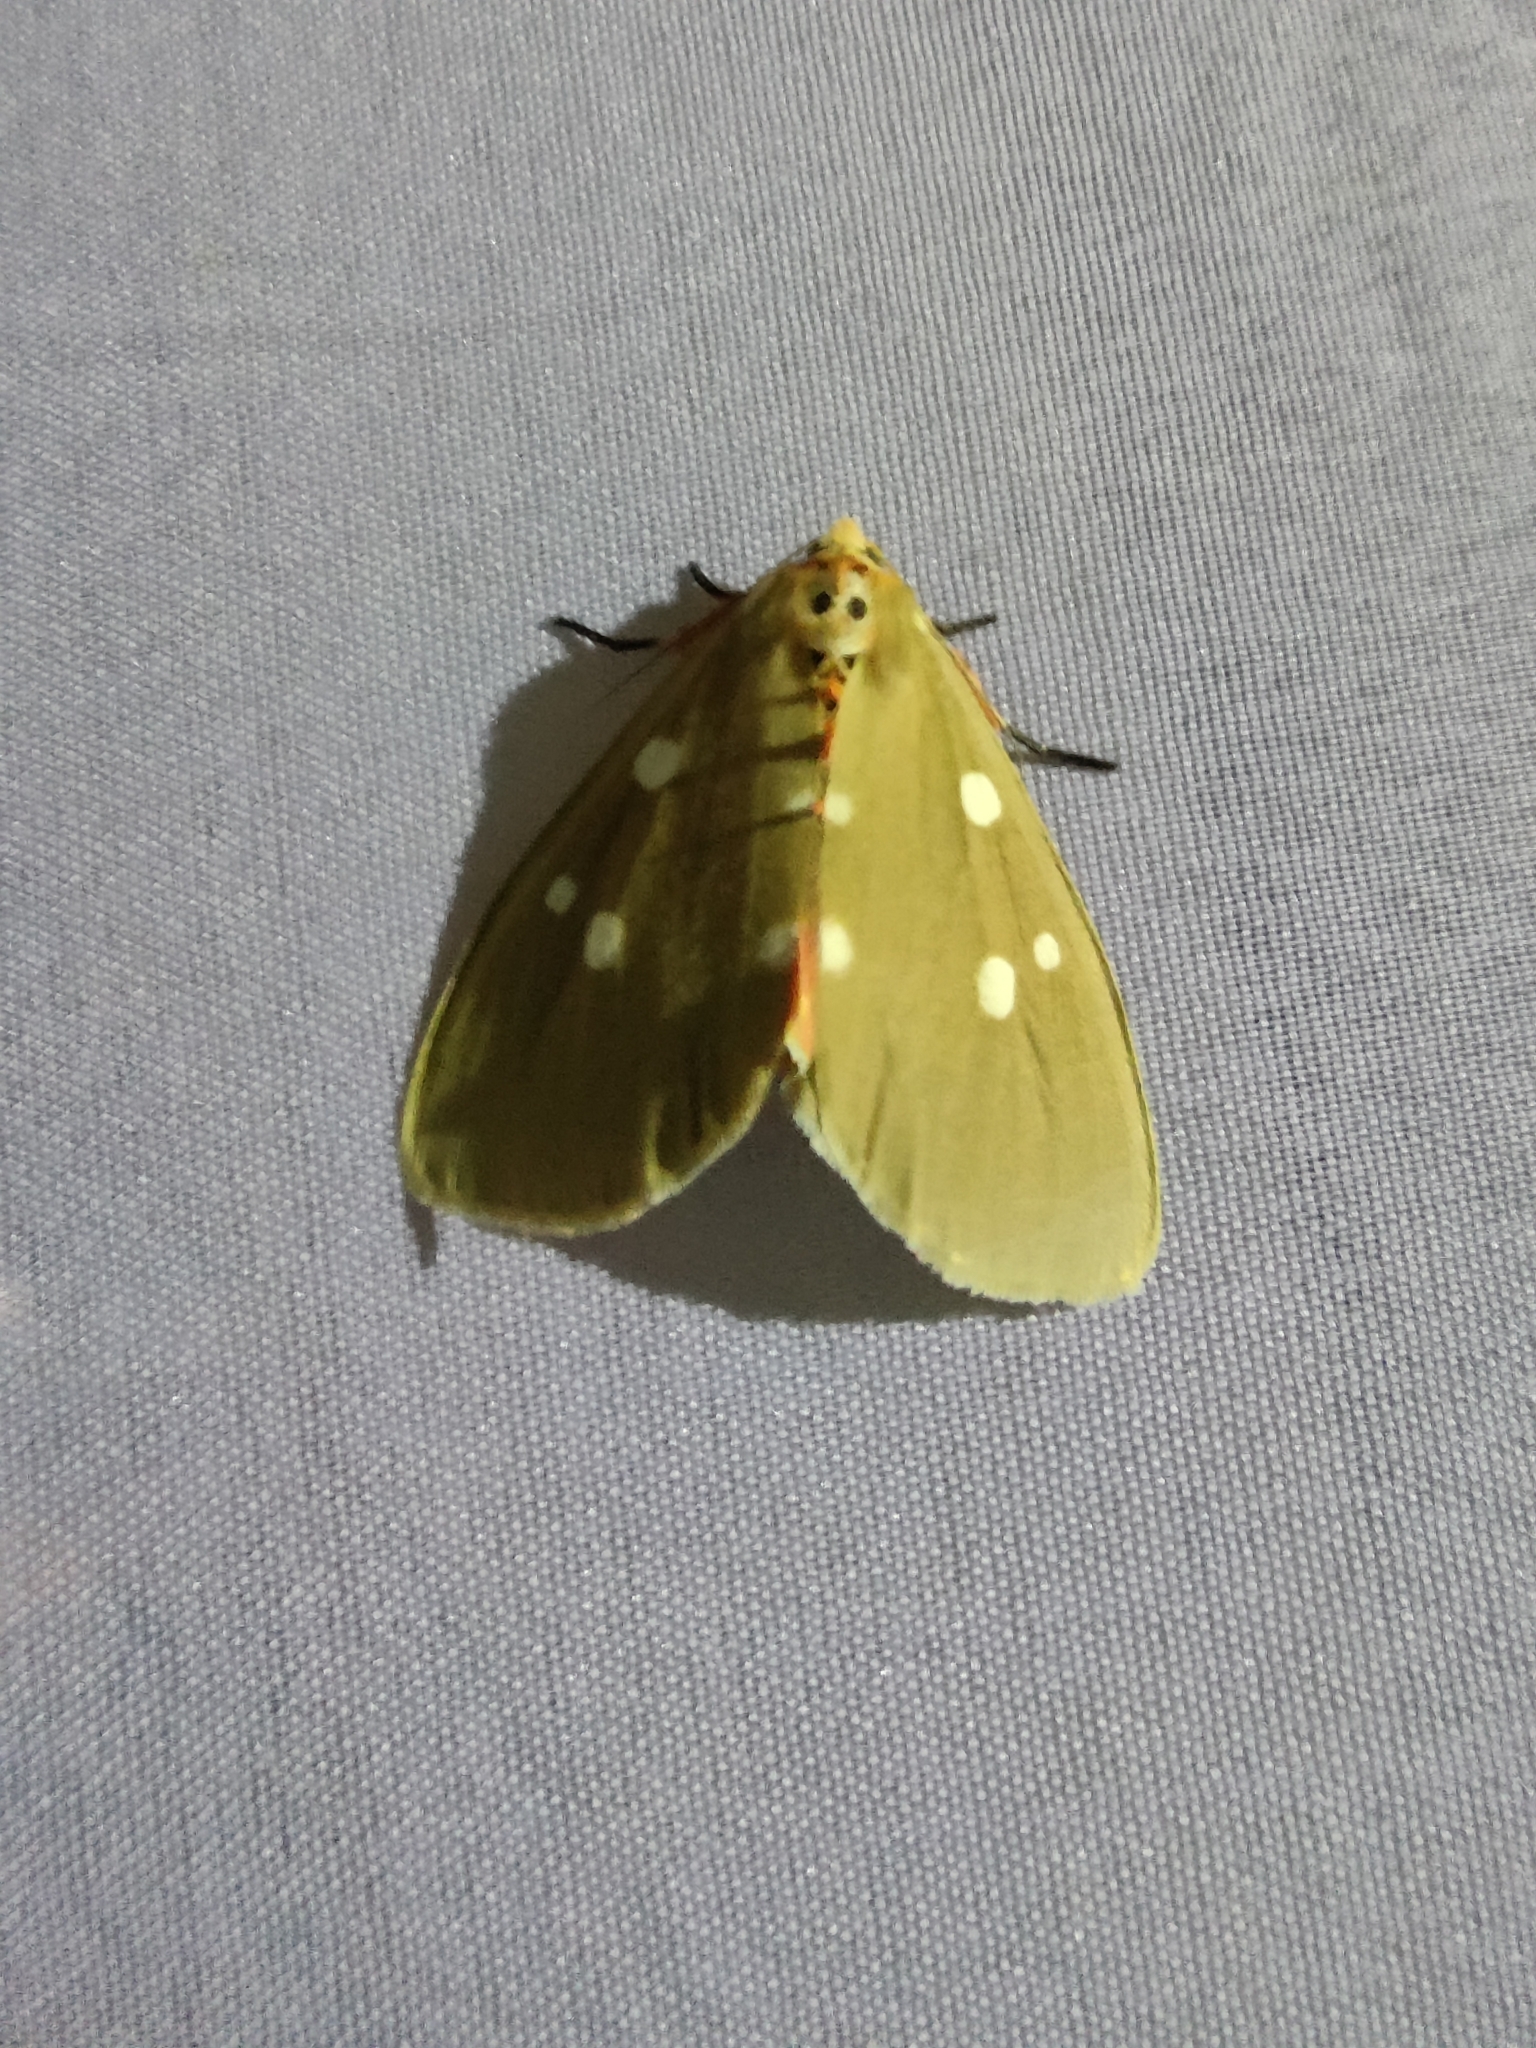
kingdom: Animalia
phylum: Arthropoda
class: Insecta
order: Lepidoptera
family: Erebidae
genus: Tinolius
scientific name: Tinolius eburneigutta
